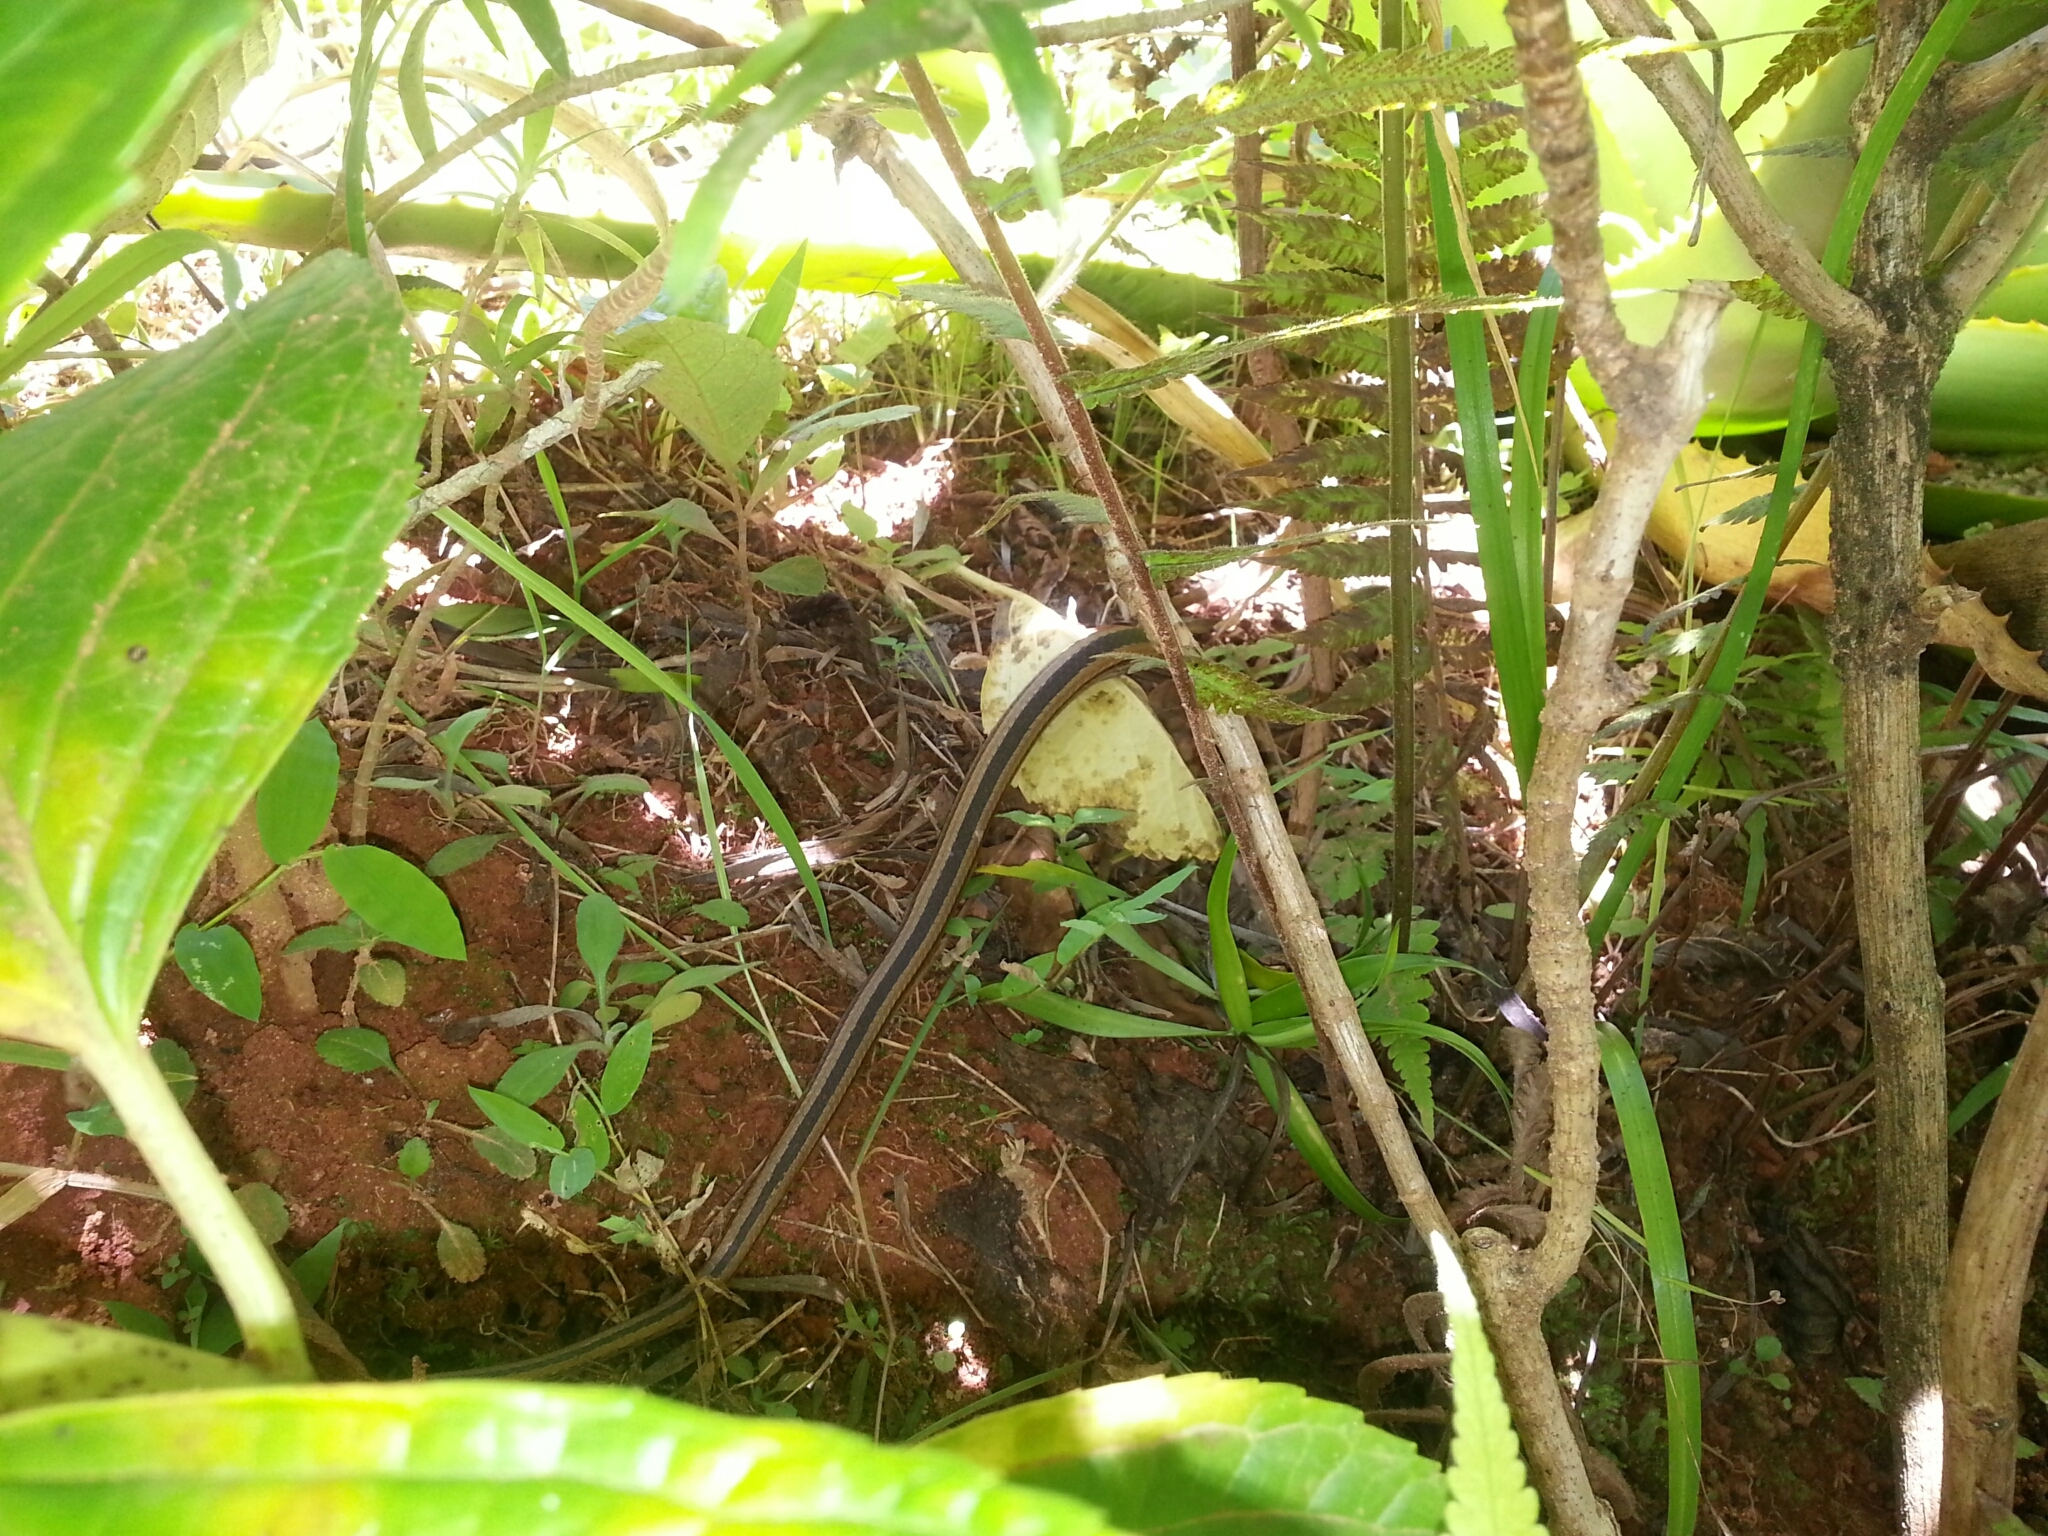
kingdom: Animalia
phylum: Chordata
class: Squamata
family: Psammophiidae
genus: Mimophis
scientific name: Mimophis mahfalensis
